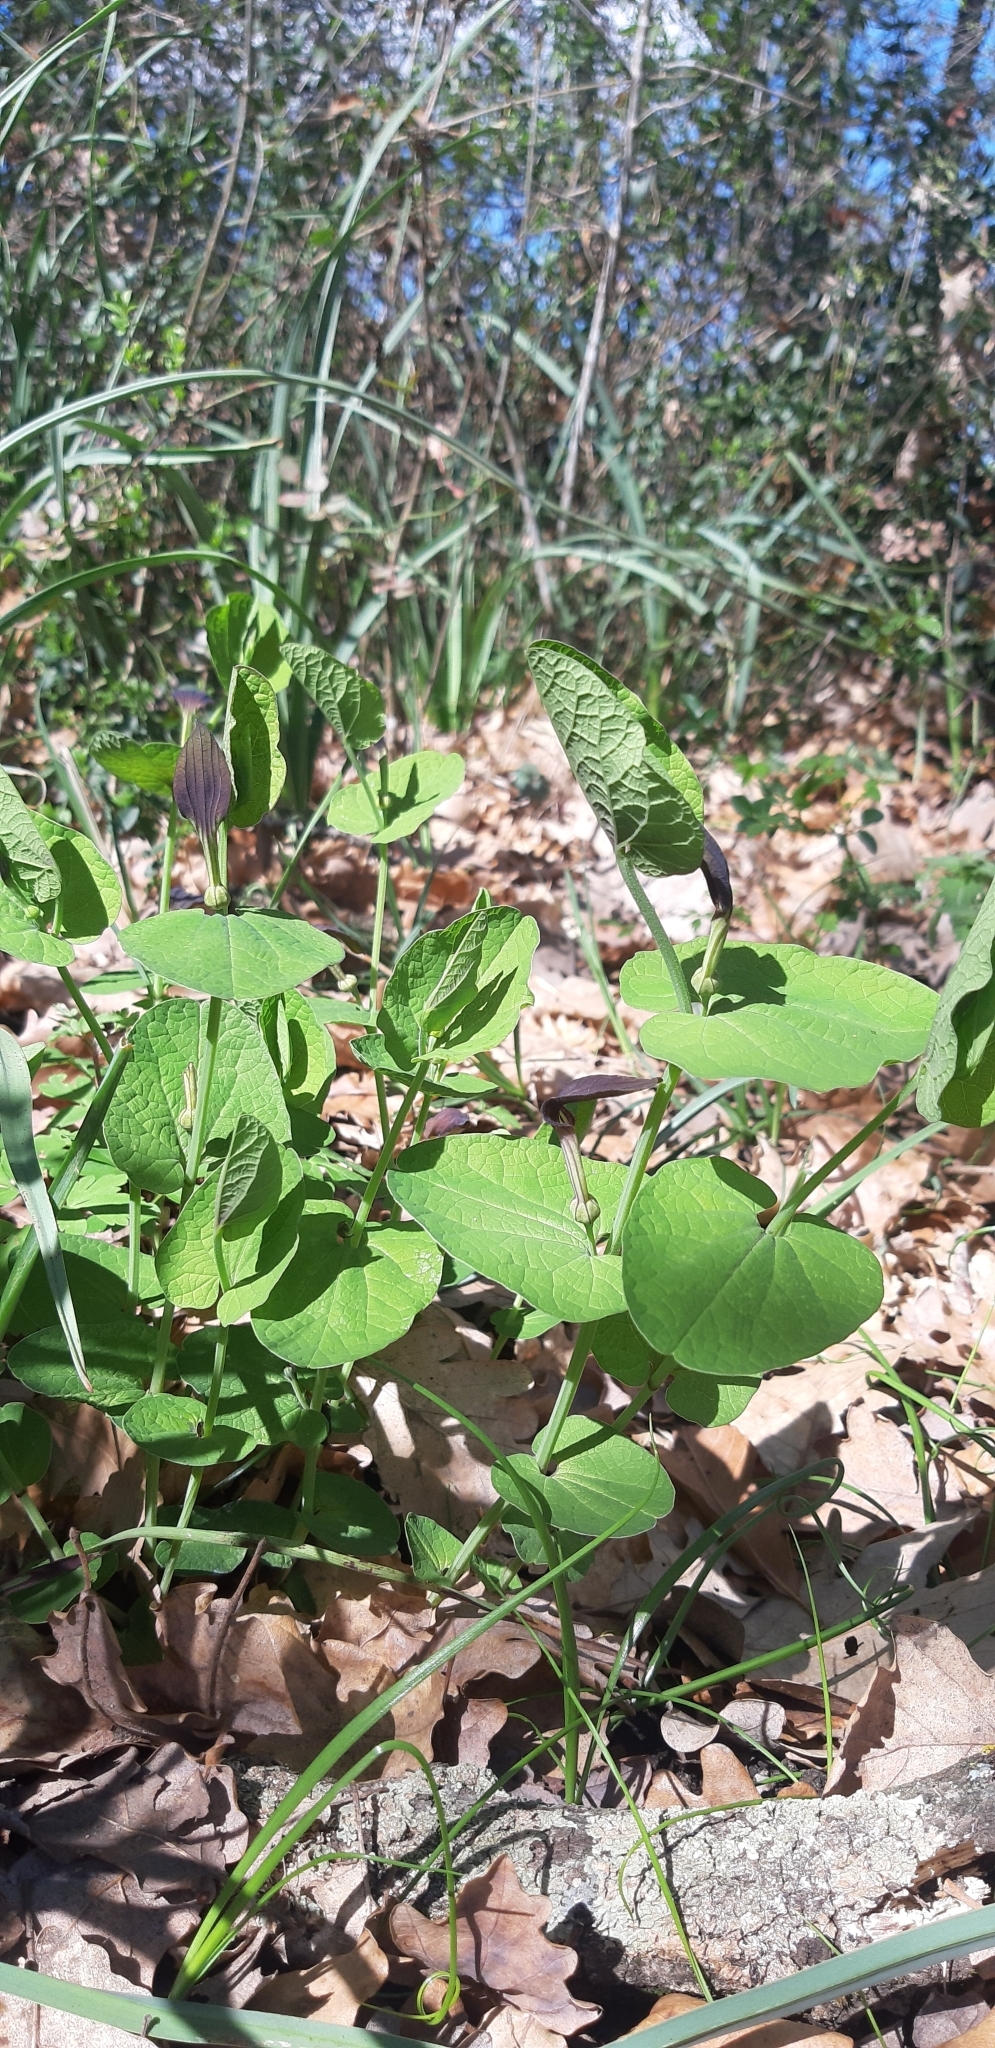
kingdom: Plantae
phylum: Tracheophyta
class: Magnoliopsida
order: Piperales
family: Aristolochiaceae
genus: Aristolochia
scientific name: Aristolochia rotunda
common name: Smearwort
